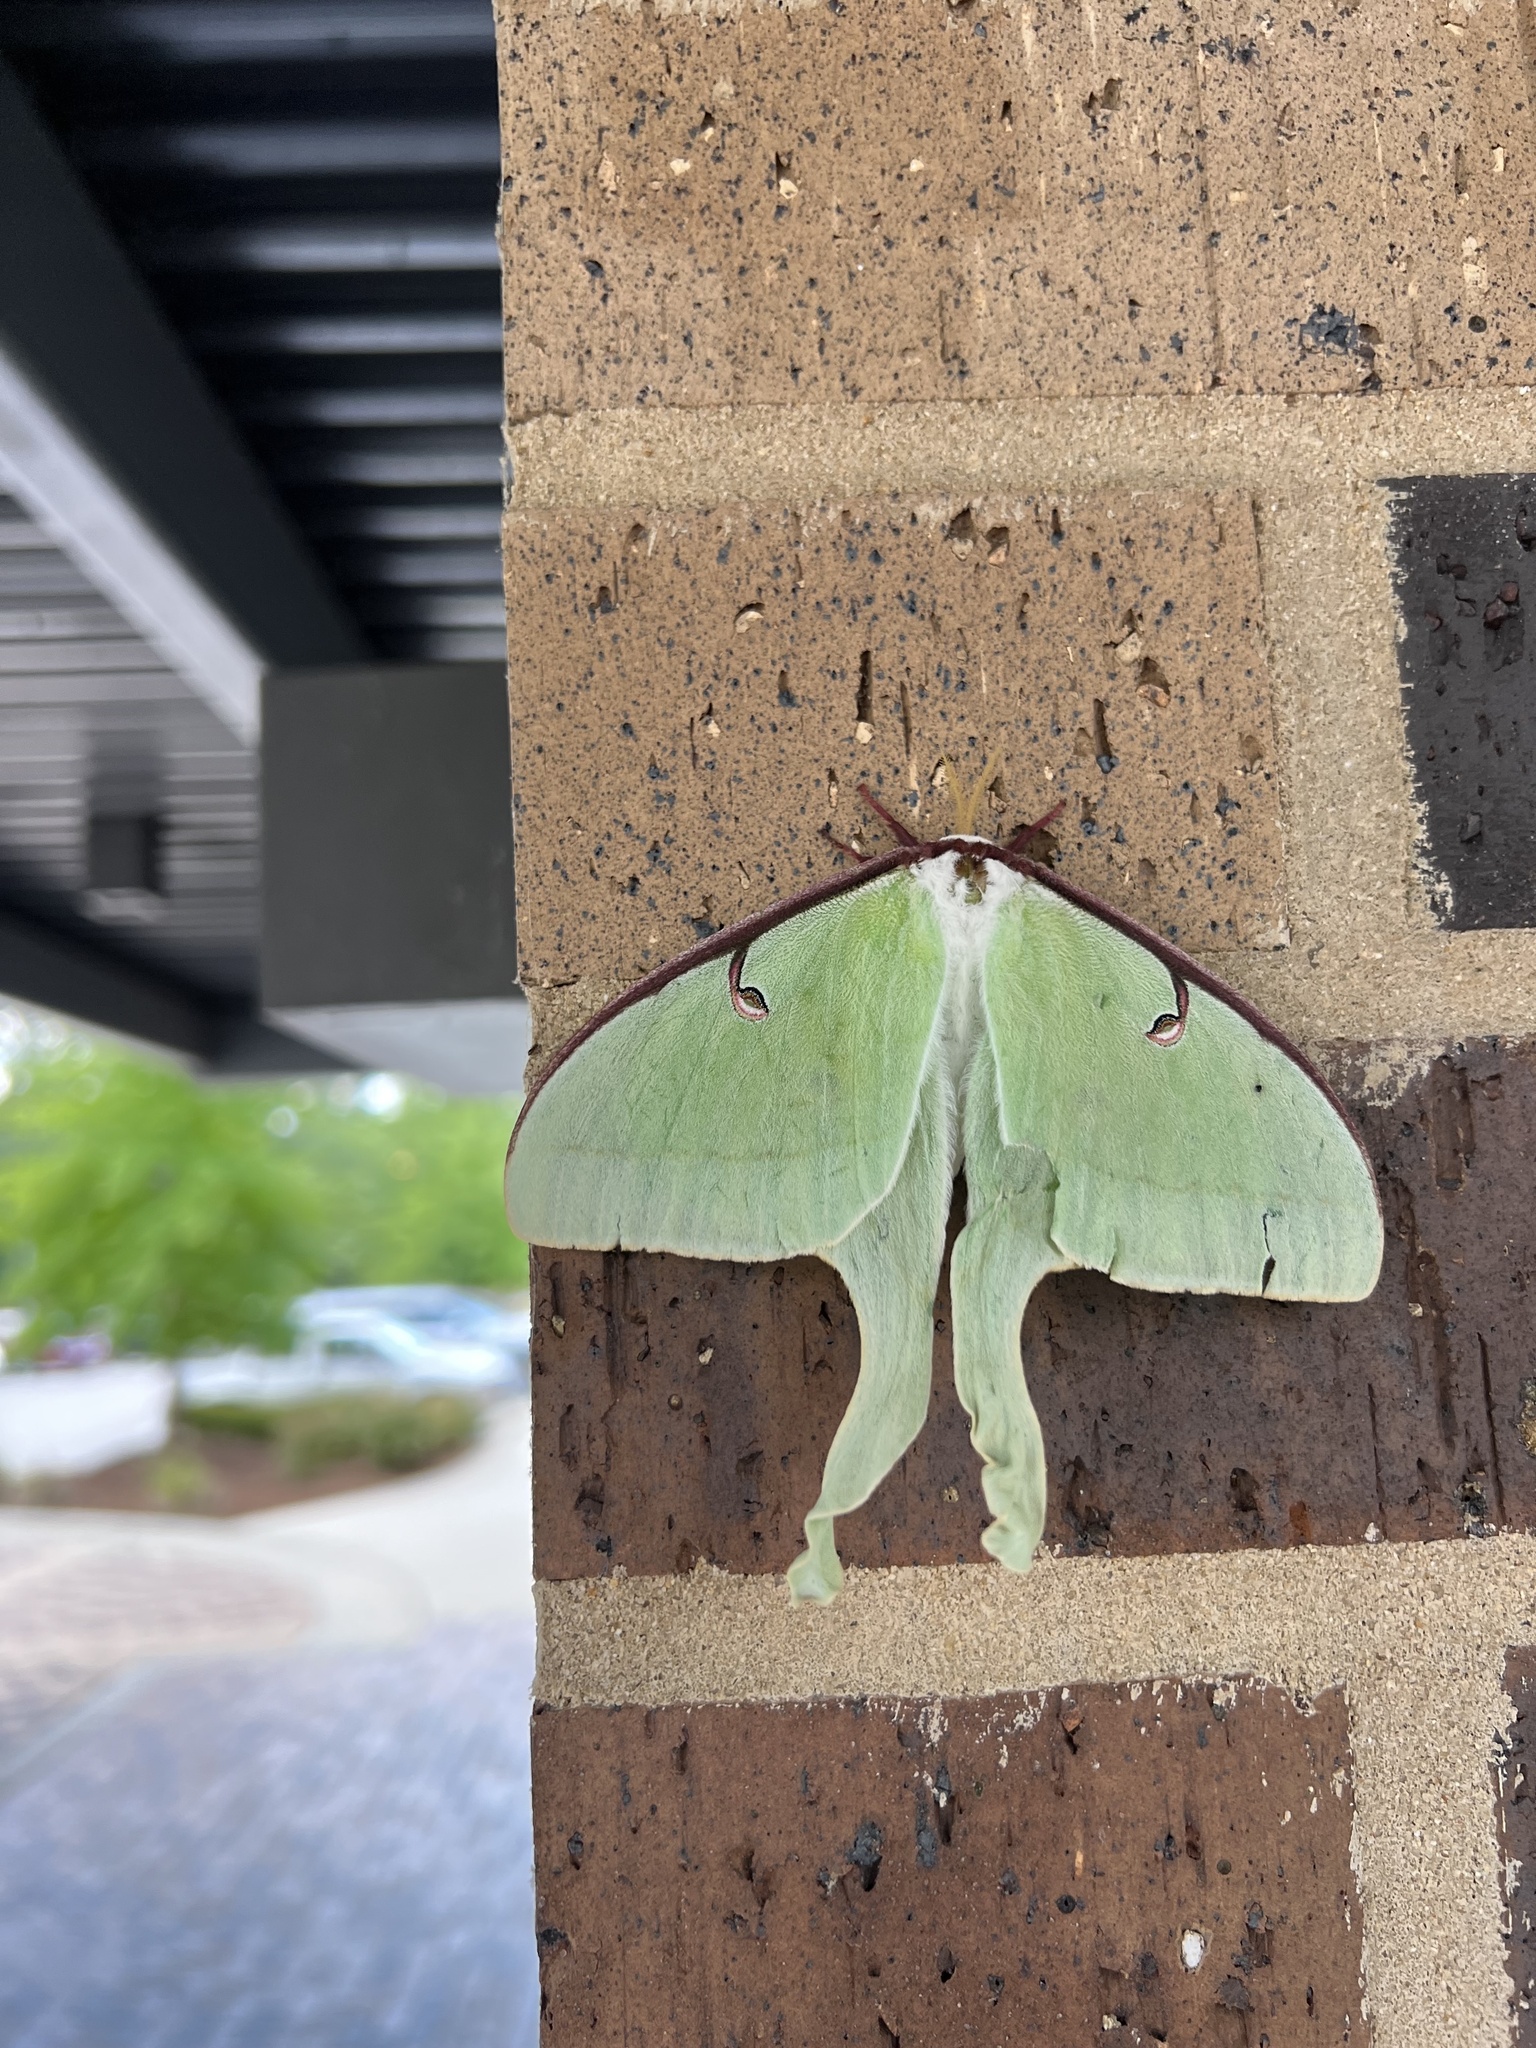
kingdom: Animalia
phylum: Arthropoda
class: Insecta
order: Lepidoptera
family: Saturniidae
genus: Actias
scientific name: Actias luna
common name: Luna moth
